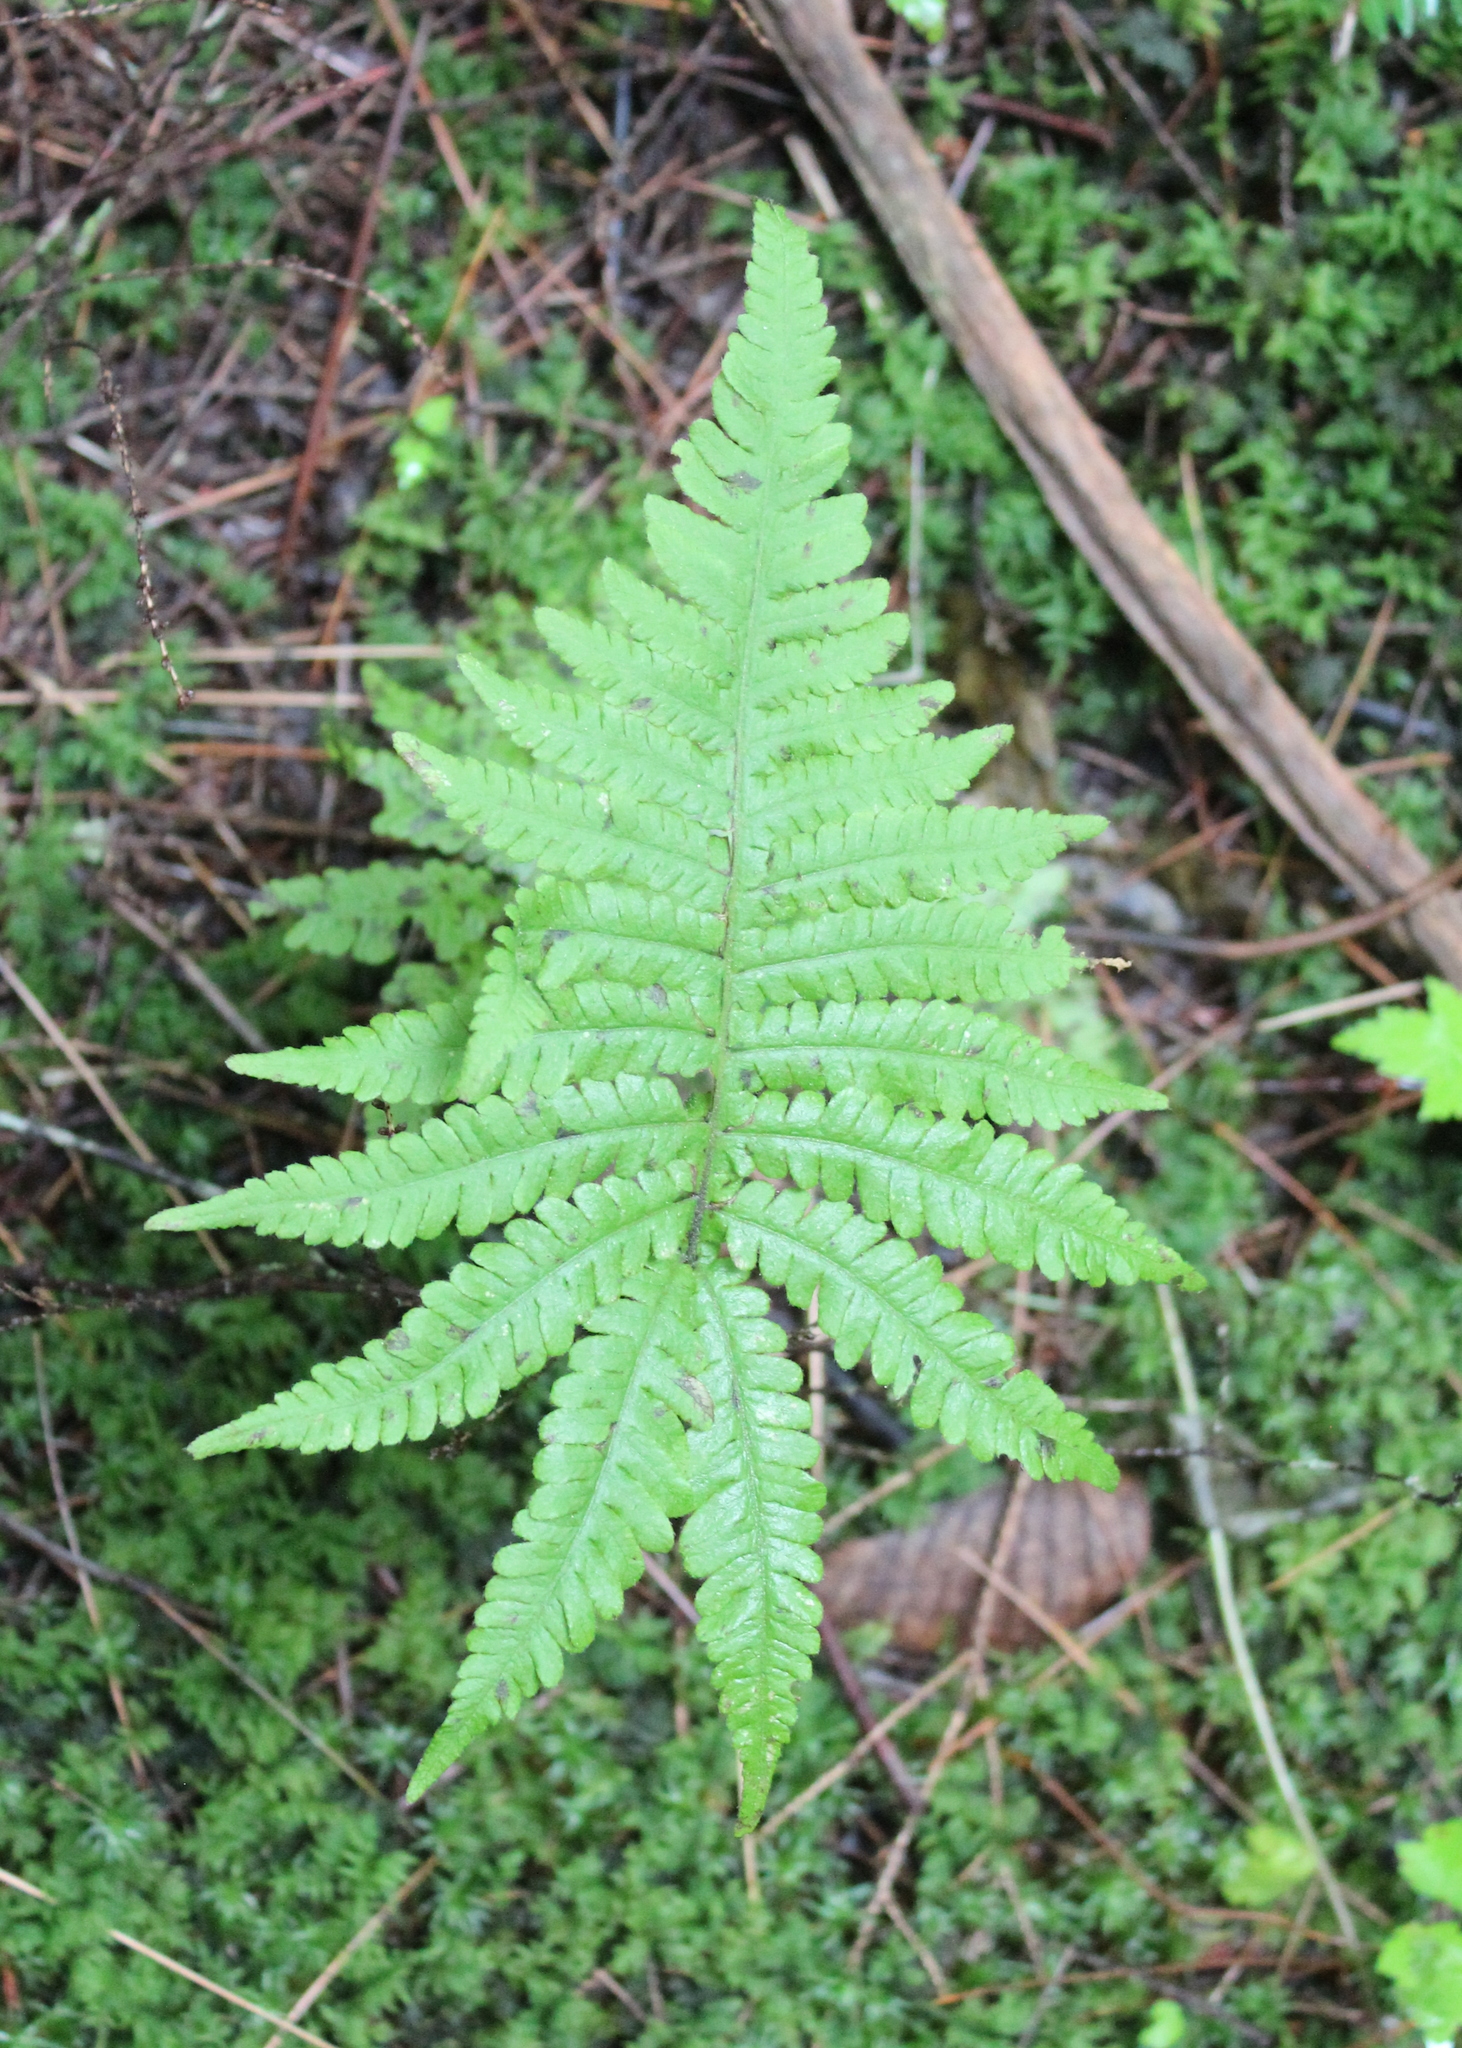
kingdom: Plantae
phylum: Tracheophyta
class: Polypodiopsida
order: Polypodiales
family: Thelypteridaceae
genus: Phegopteris
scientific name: Phegopteris connectilis
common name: Beech fern
